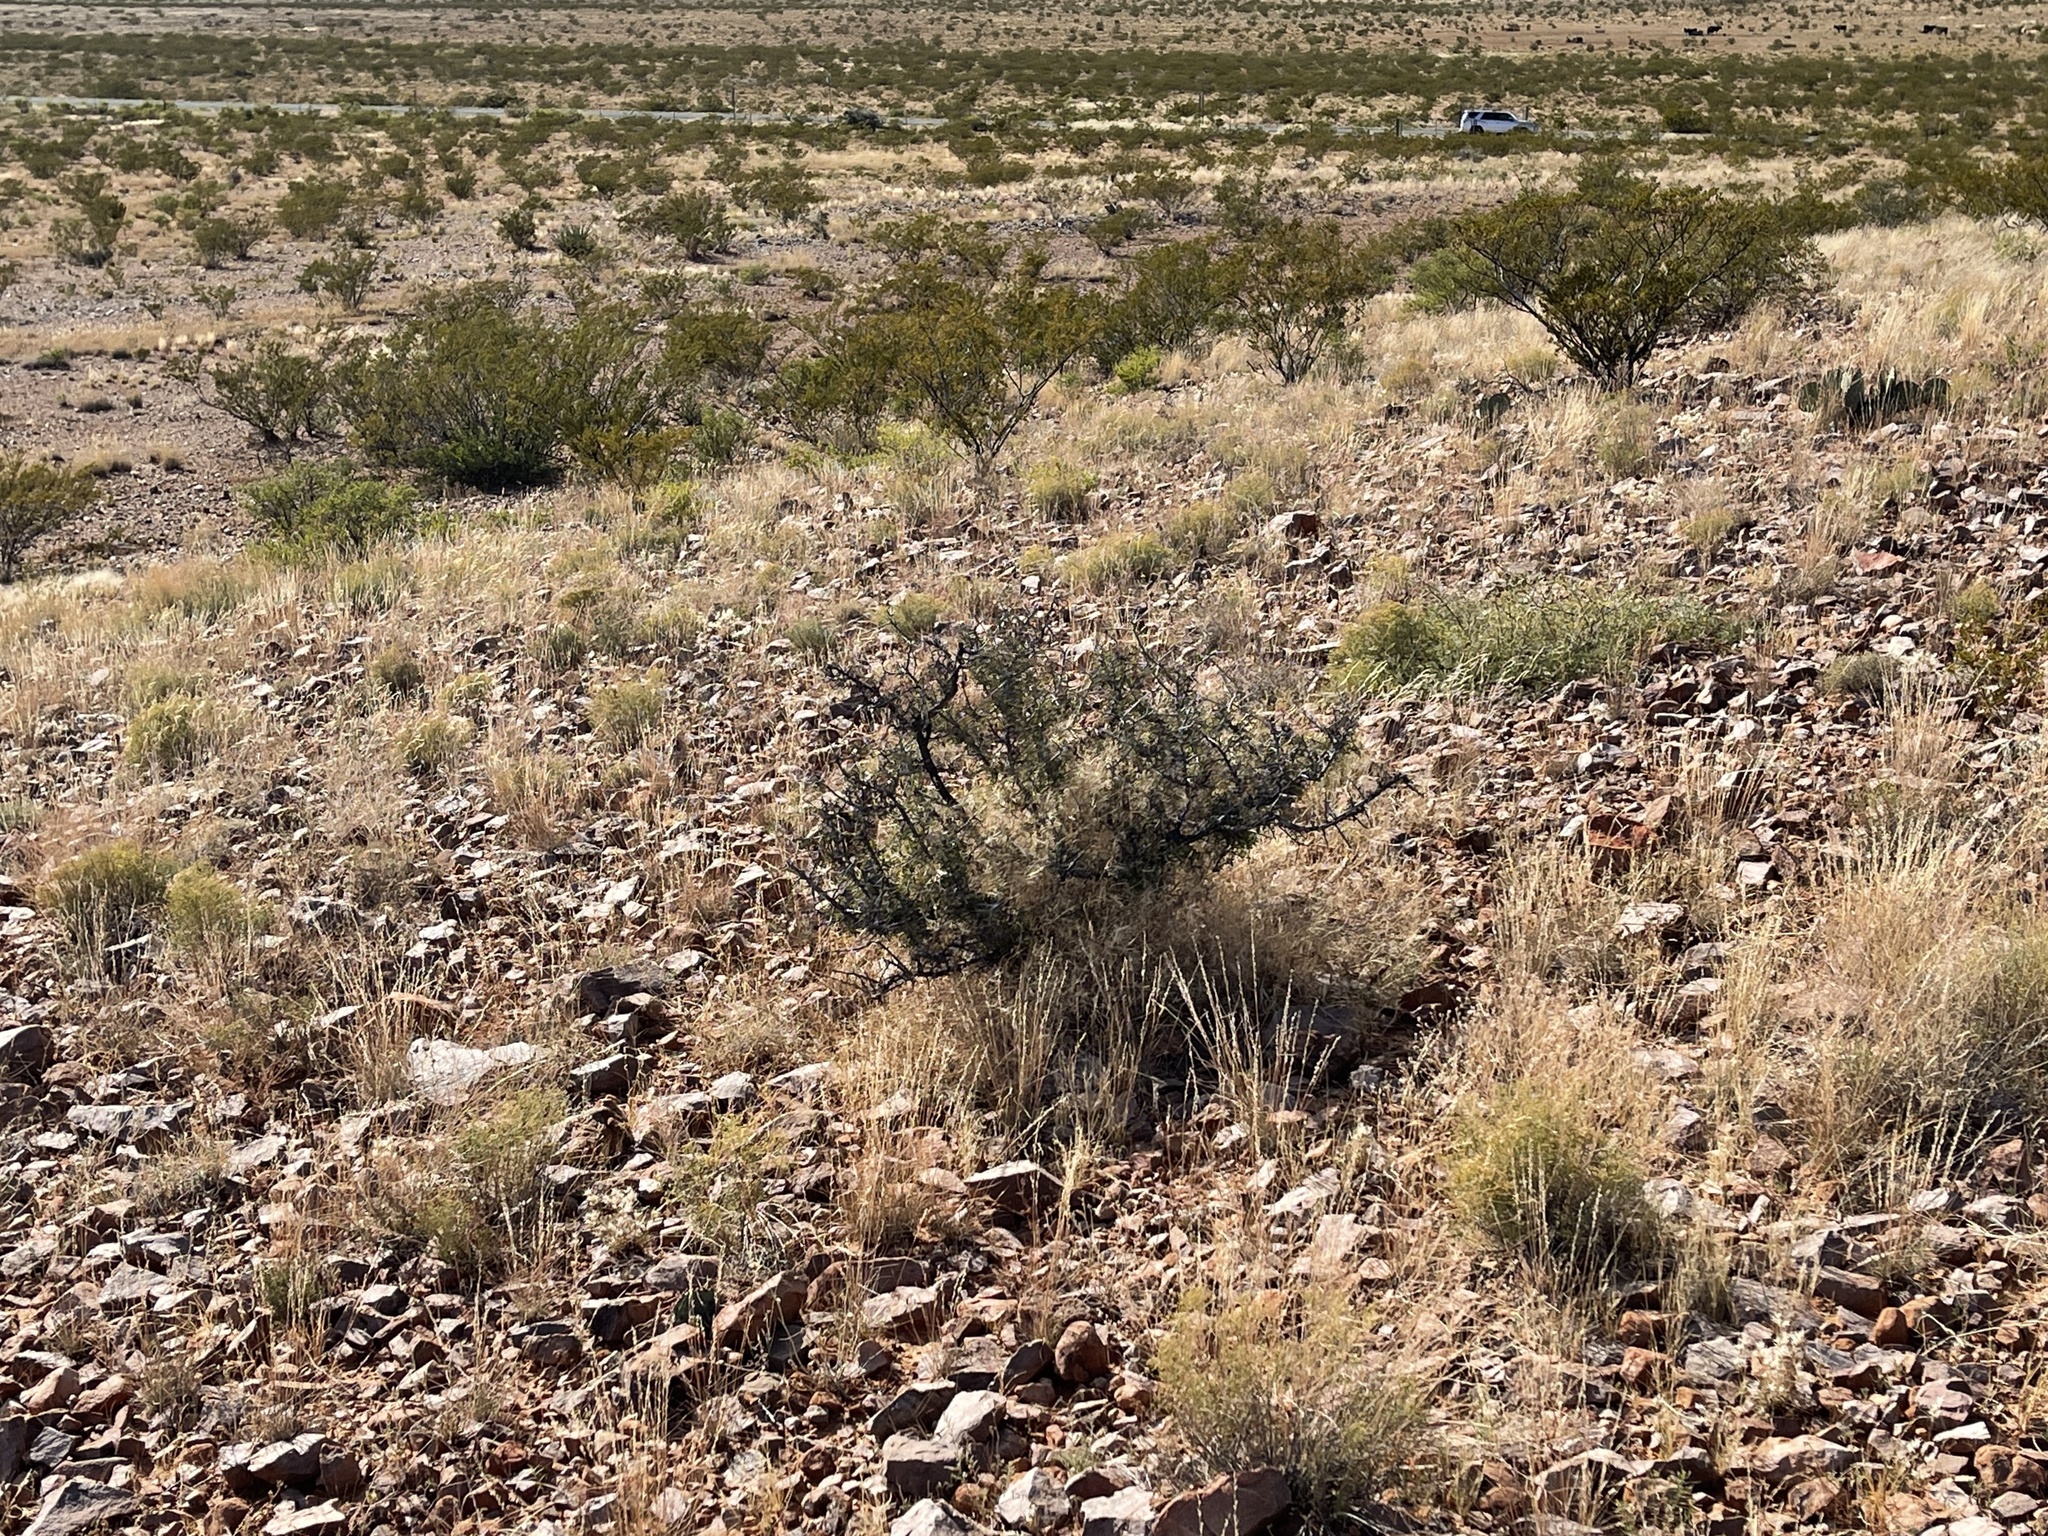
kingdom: Plantae
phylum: Tracheophyta
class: Magnoliopsida
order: Rosales
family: Rhamnaceae
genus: Sarcomphalus
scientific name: Sarcomphalus obtusifolius
